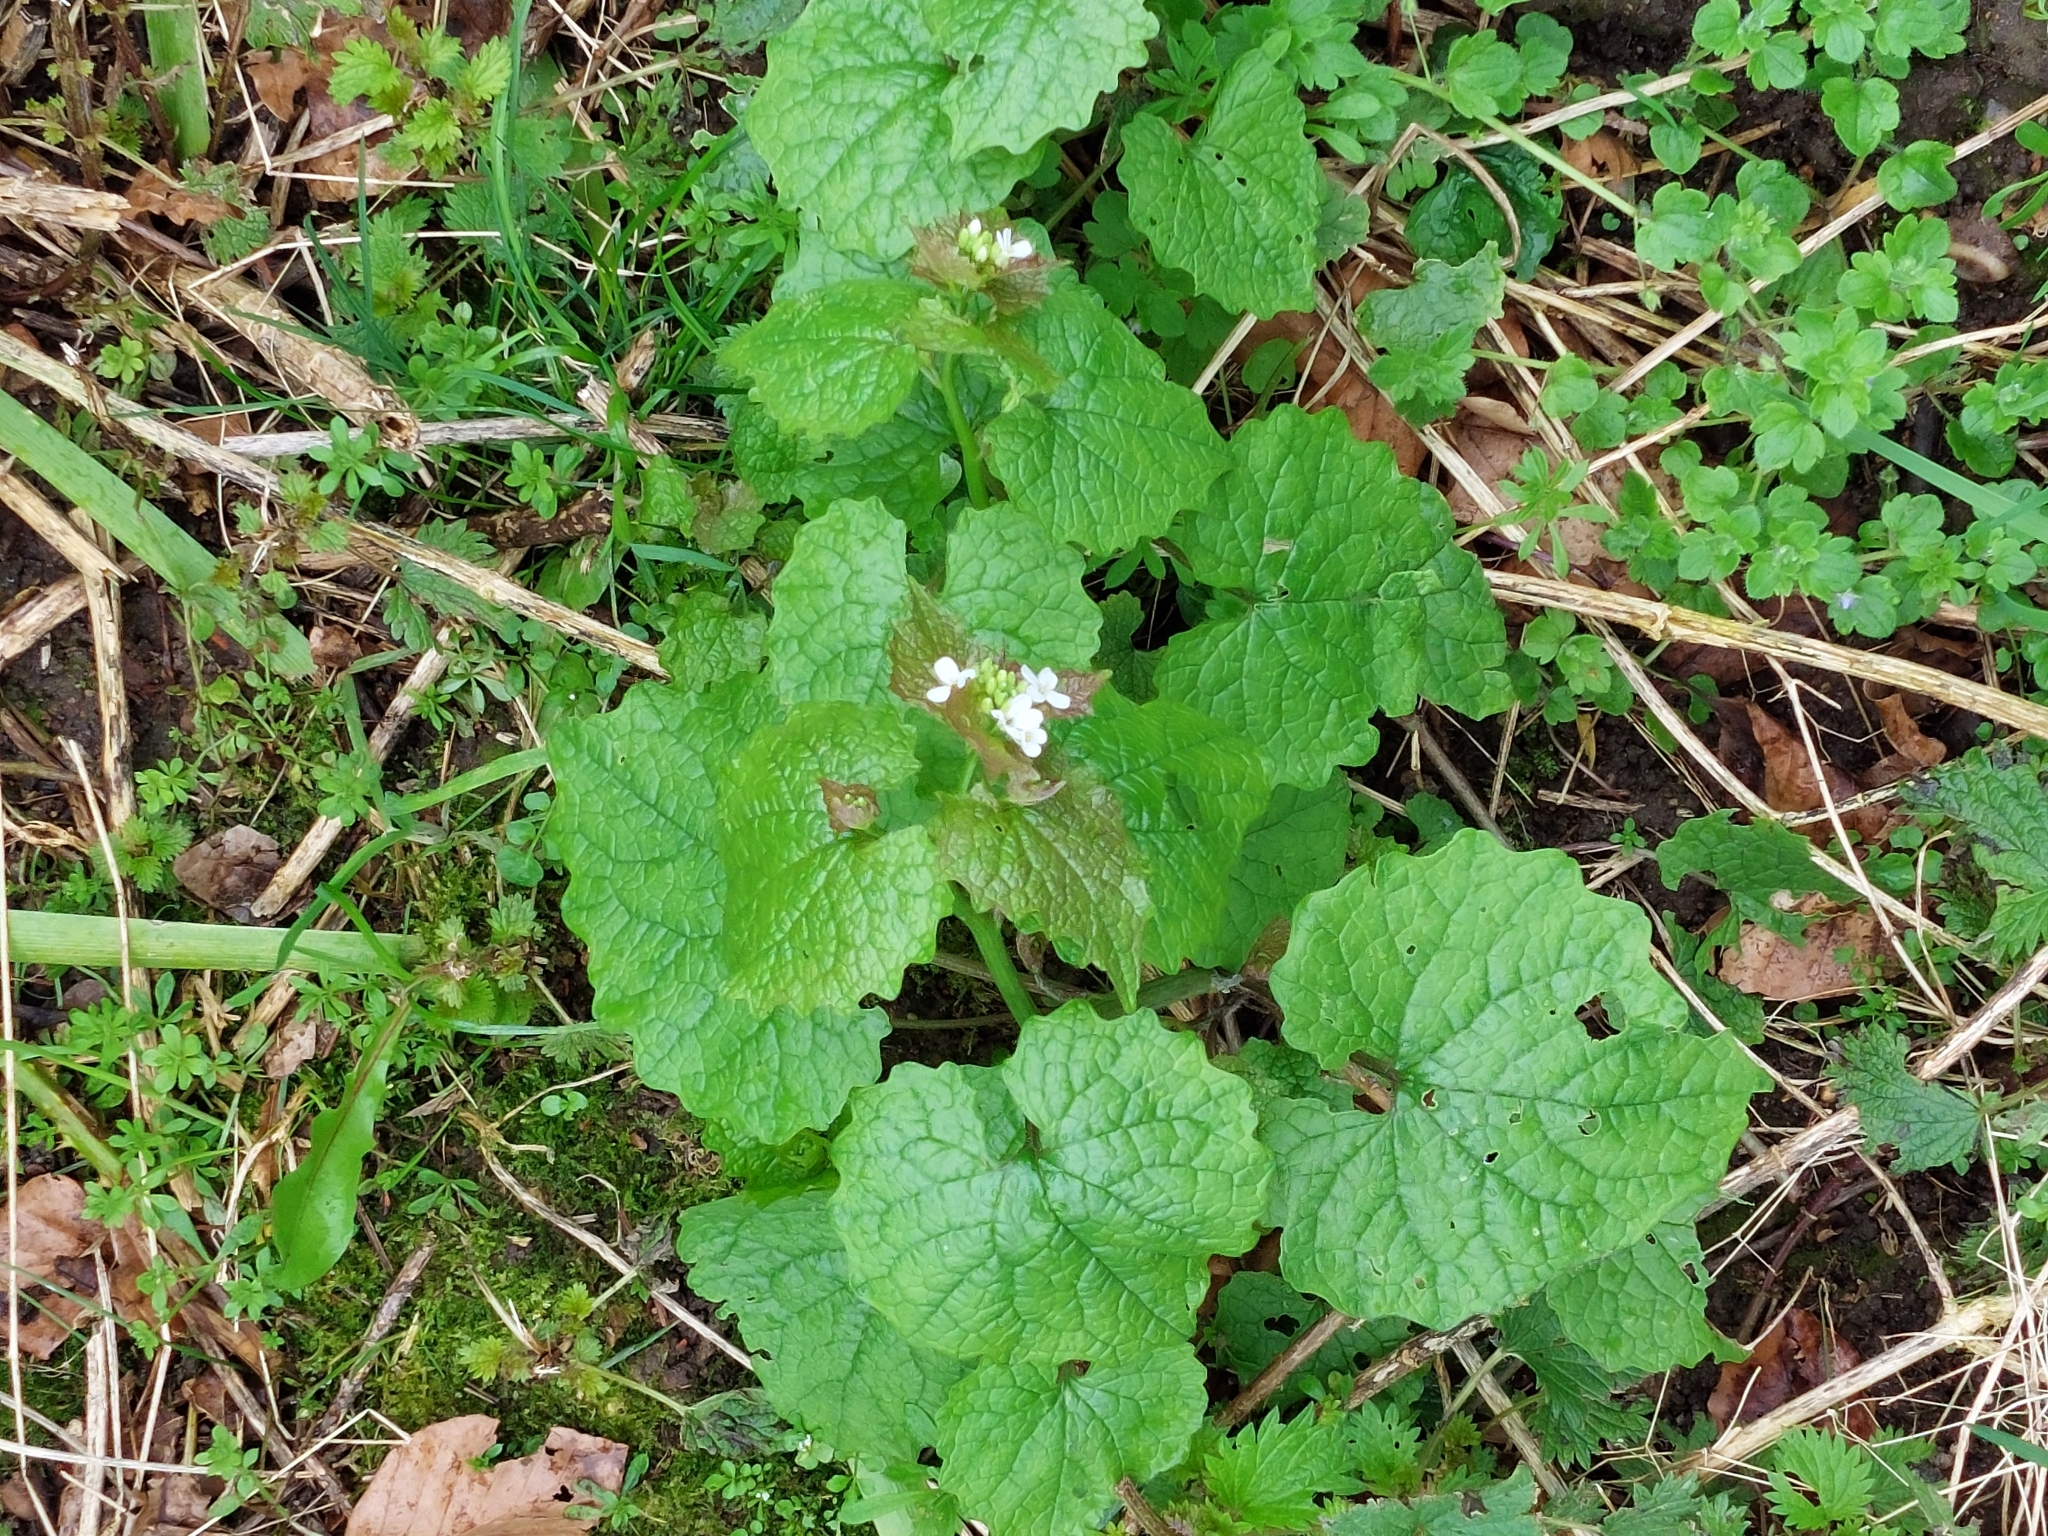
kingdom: Plantae
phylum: Tracheophyta
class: Magnoliopsida
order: Brassicales
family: Brassicaceae
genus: Alliaria
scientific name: Alliaria petiolata
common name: Garlic mustard
